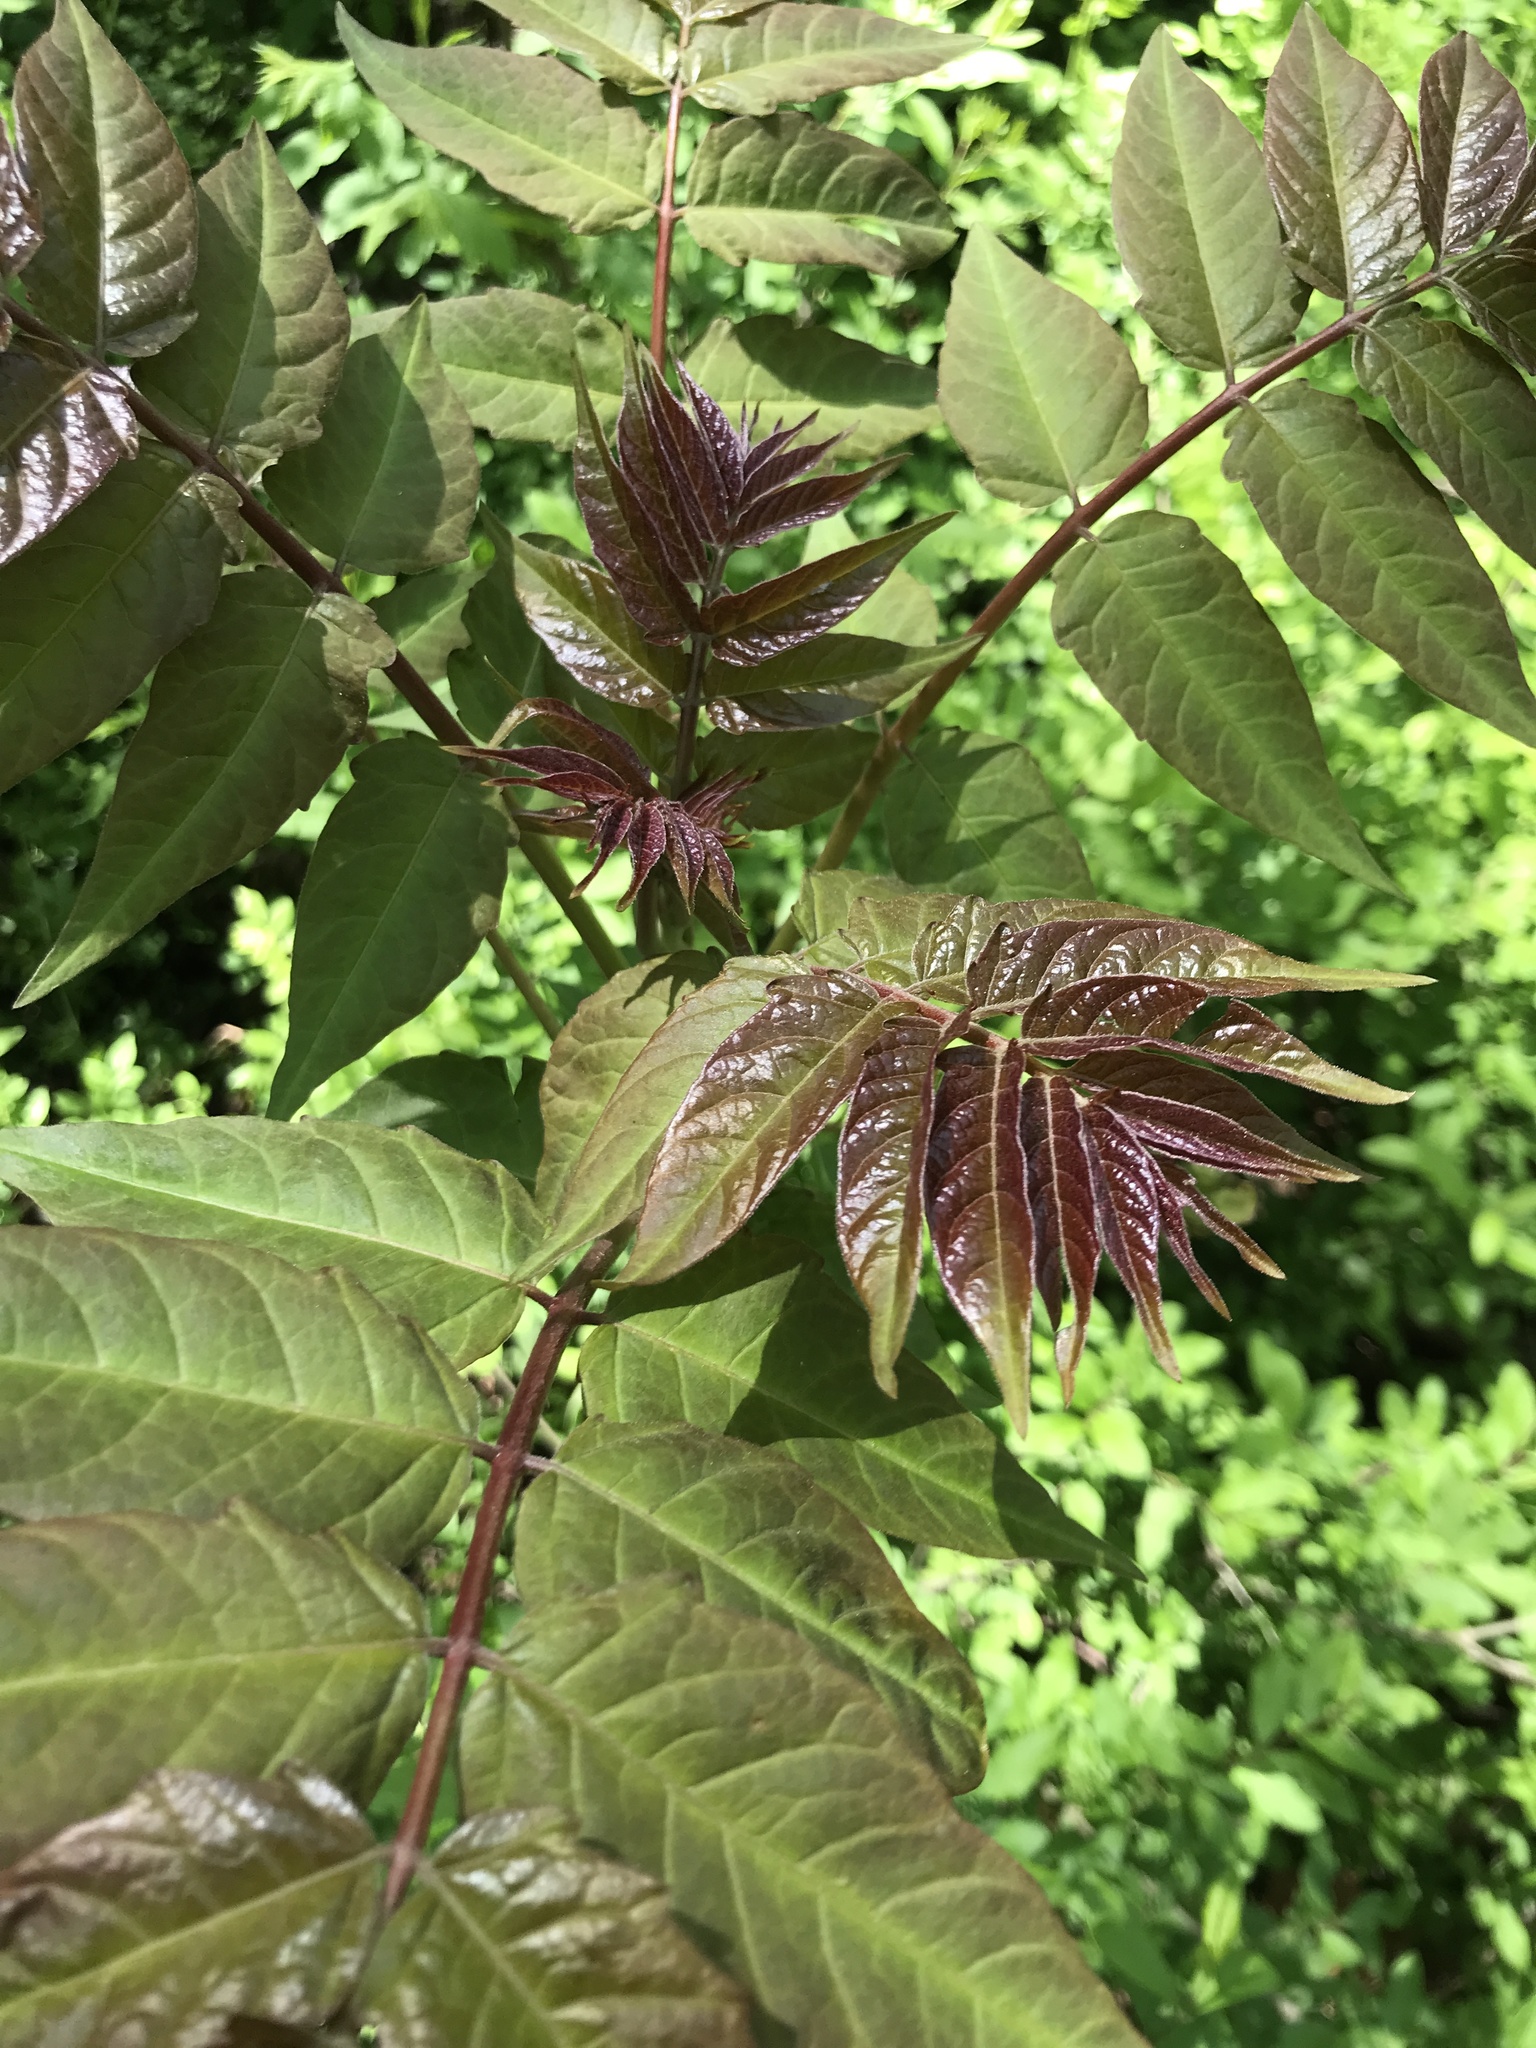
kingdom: Plantae
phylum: Tracheophyta
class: Magnoliopsida
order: Sapindales
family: Simaroubaceae
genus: Ailanthus
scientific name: Ailanthus altissima
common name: Tree-of-heaven
